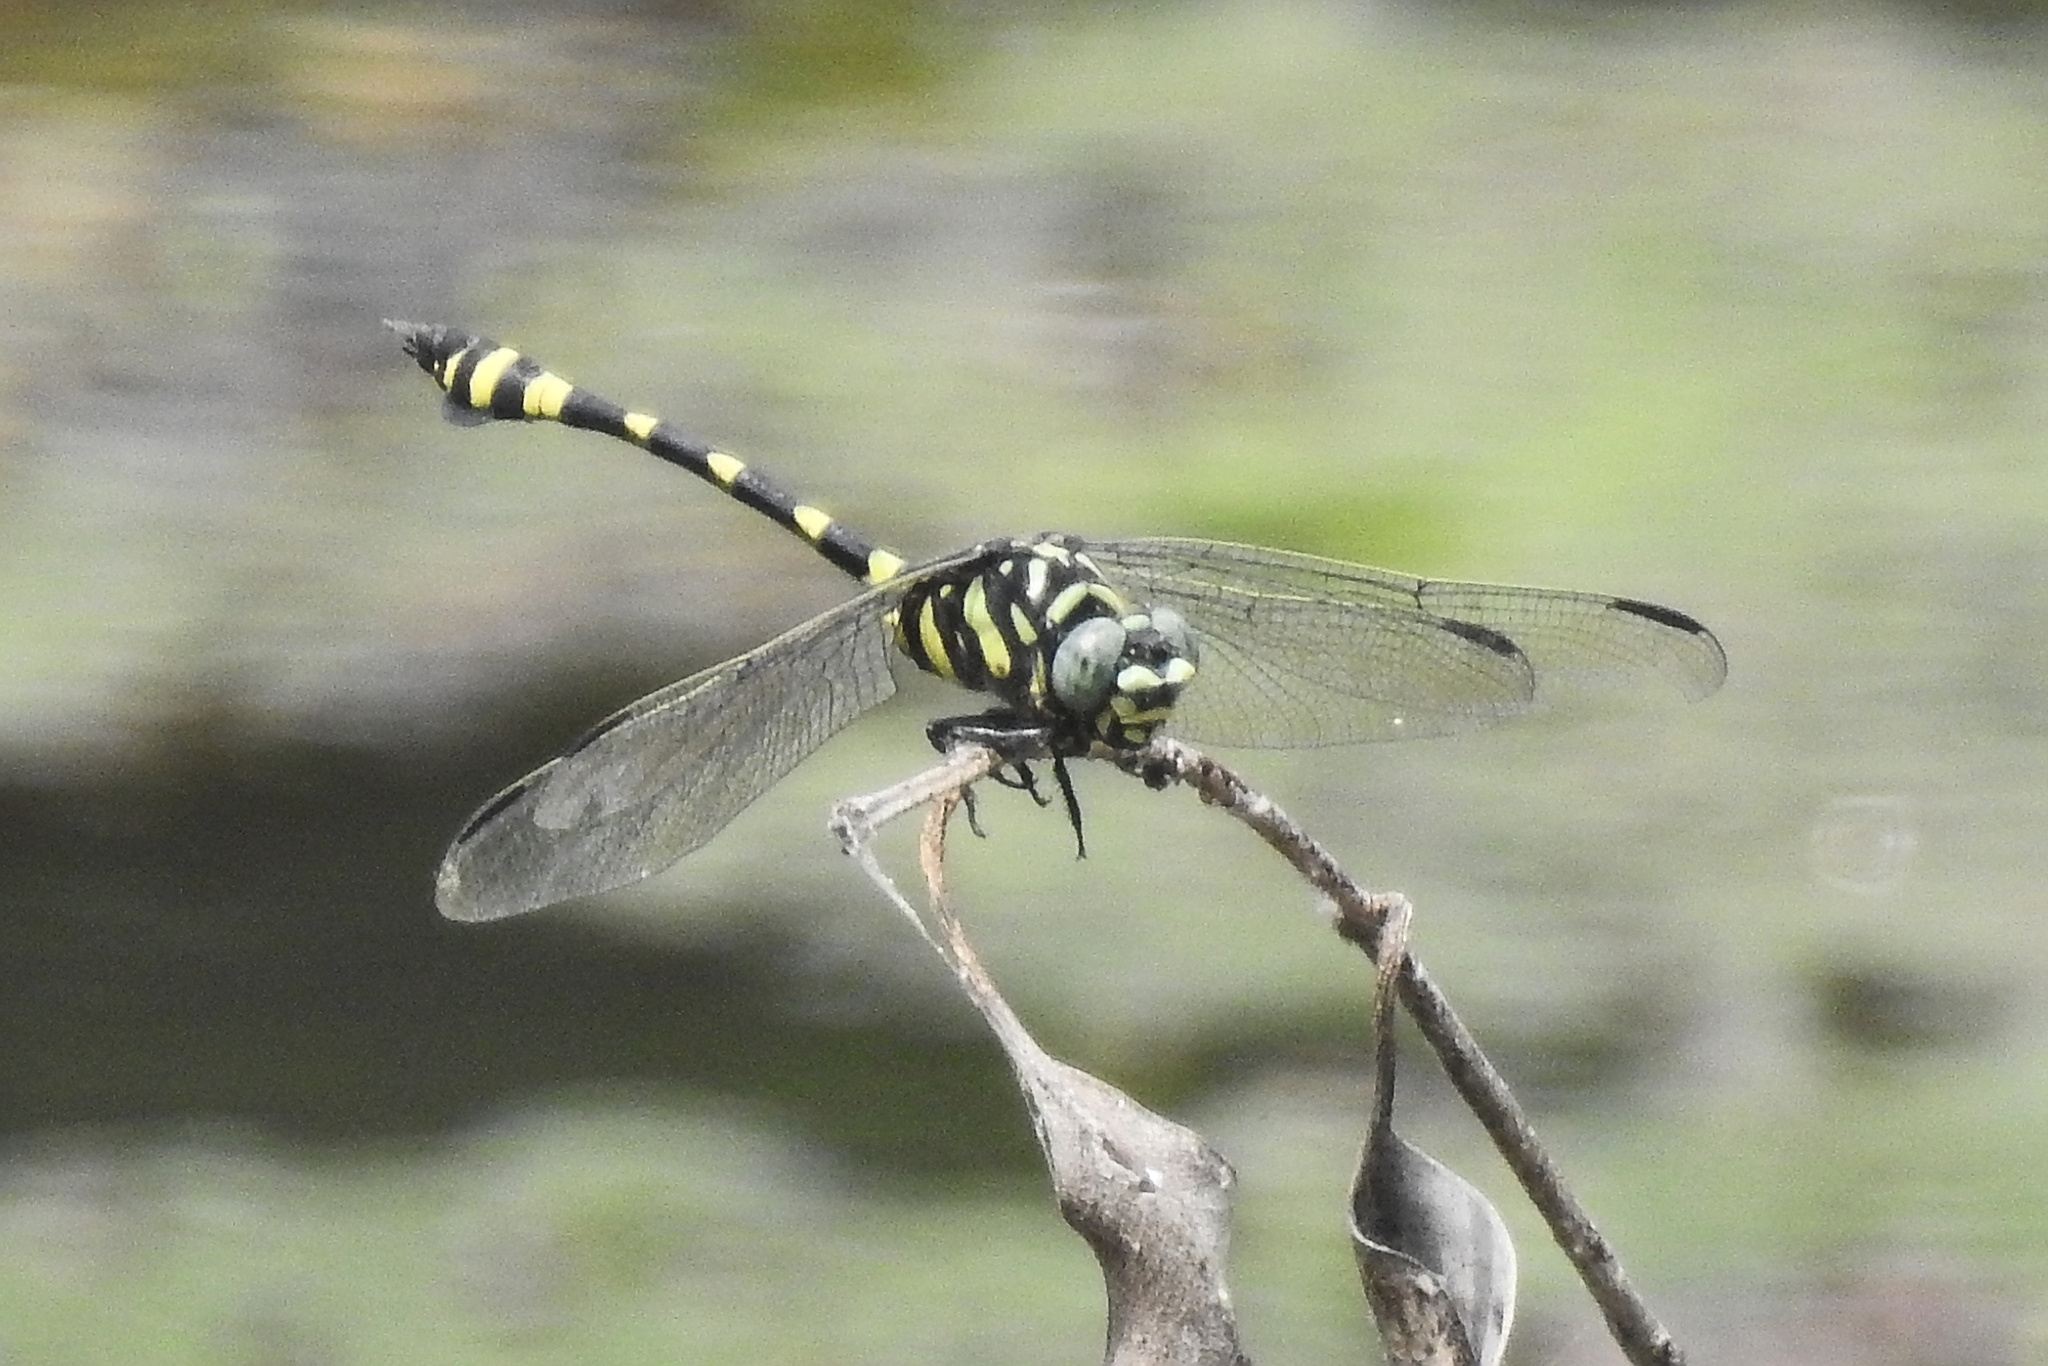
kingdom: Animalia
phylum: Arthropoda
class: Insecta
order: Odonata
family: Gomphidae
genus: Ictinogomphus
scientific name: Ictinogomphus rapax
